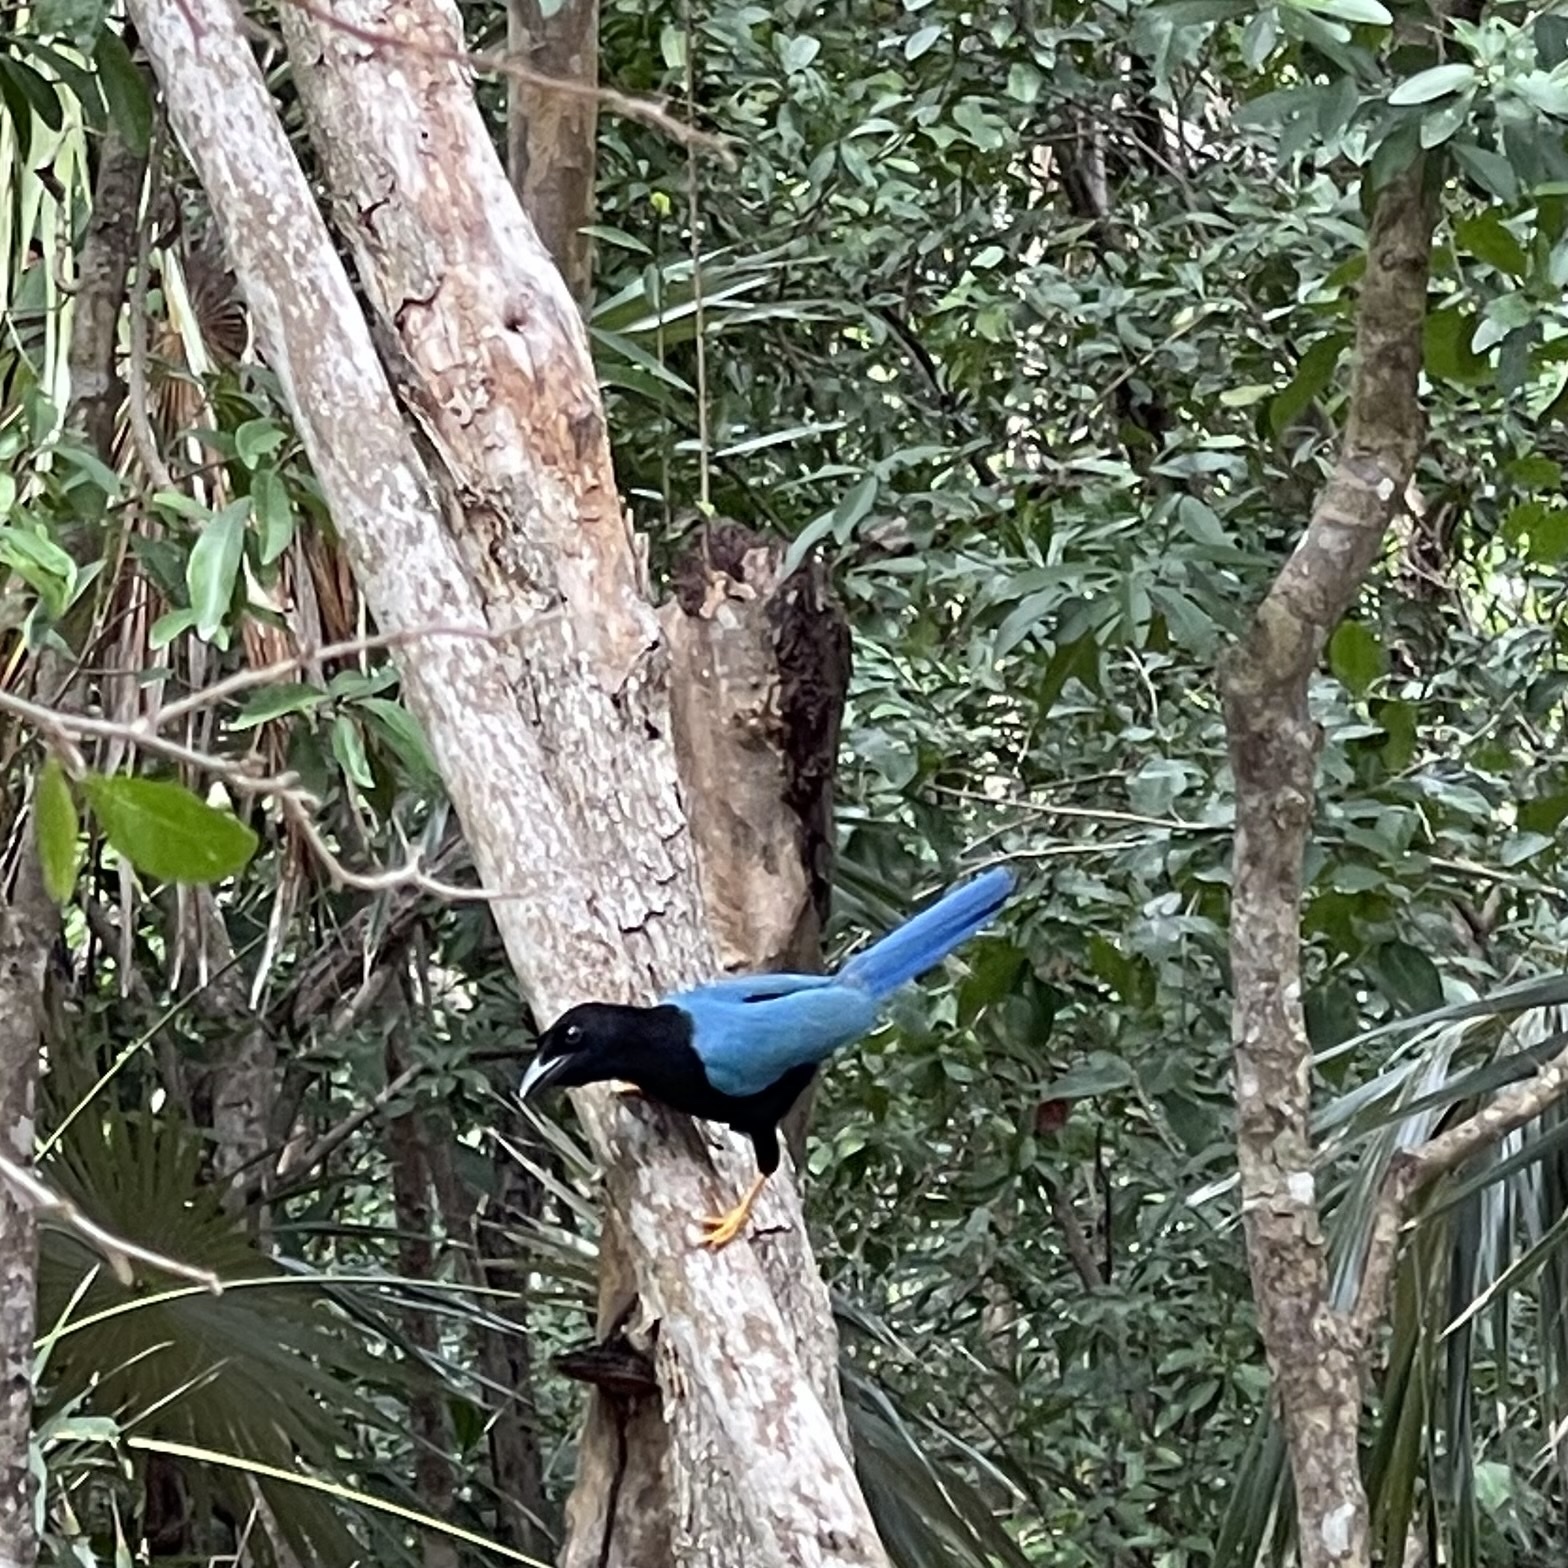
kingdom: Animalia
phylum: Chordata
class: Aves
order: Passeriformes
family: Corvidae
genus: Cyanocorax
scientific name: Cyanocorax yucatanicus
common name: Yucatan jay
